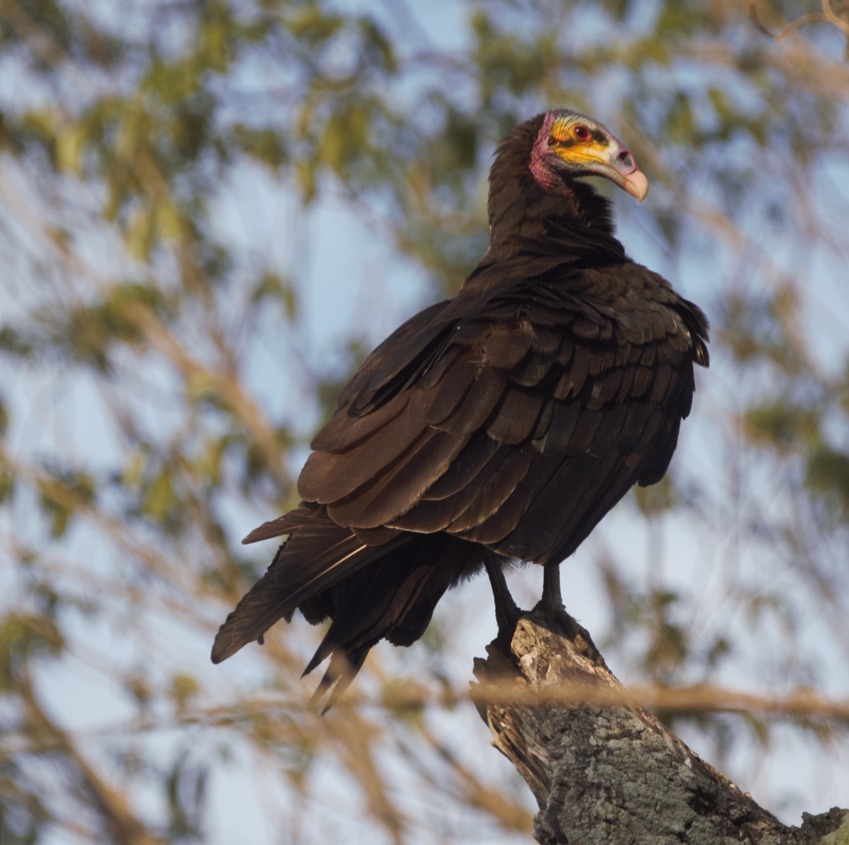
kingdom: Animalia
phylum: Chordata
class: Aves
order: Accipitriformes
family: Cathartidae
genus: Cathartes
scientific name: Cathartes burrovianus
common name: Lesser yellow-headed vulture
